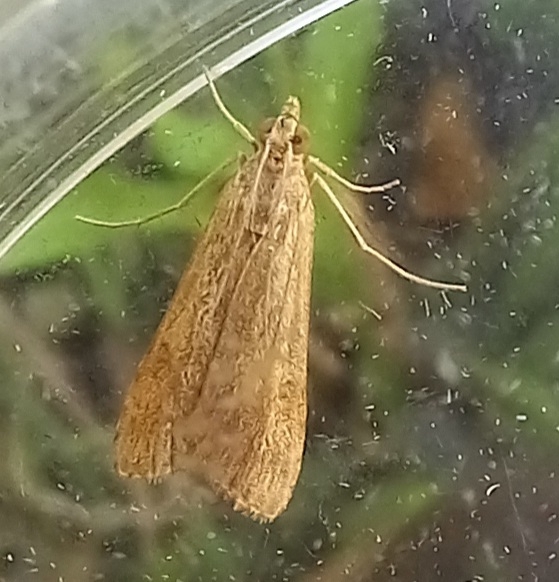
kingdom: Animalia
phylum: Arthropoda
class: Insecta
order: Lepidoptera
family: Crambidae
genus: Nomophila
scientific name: Nomophila noctuella
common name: Rush veneer
